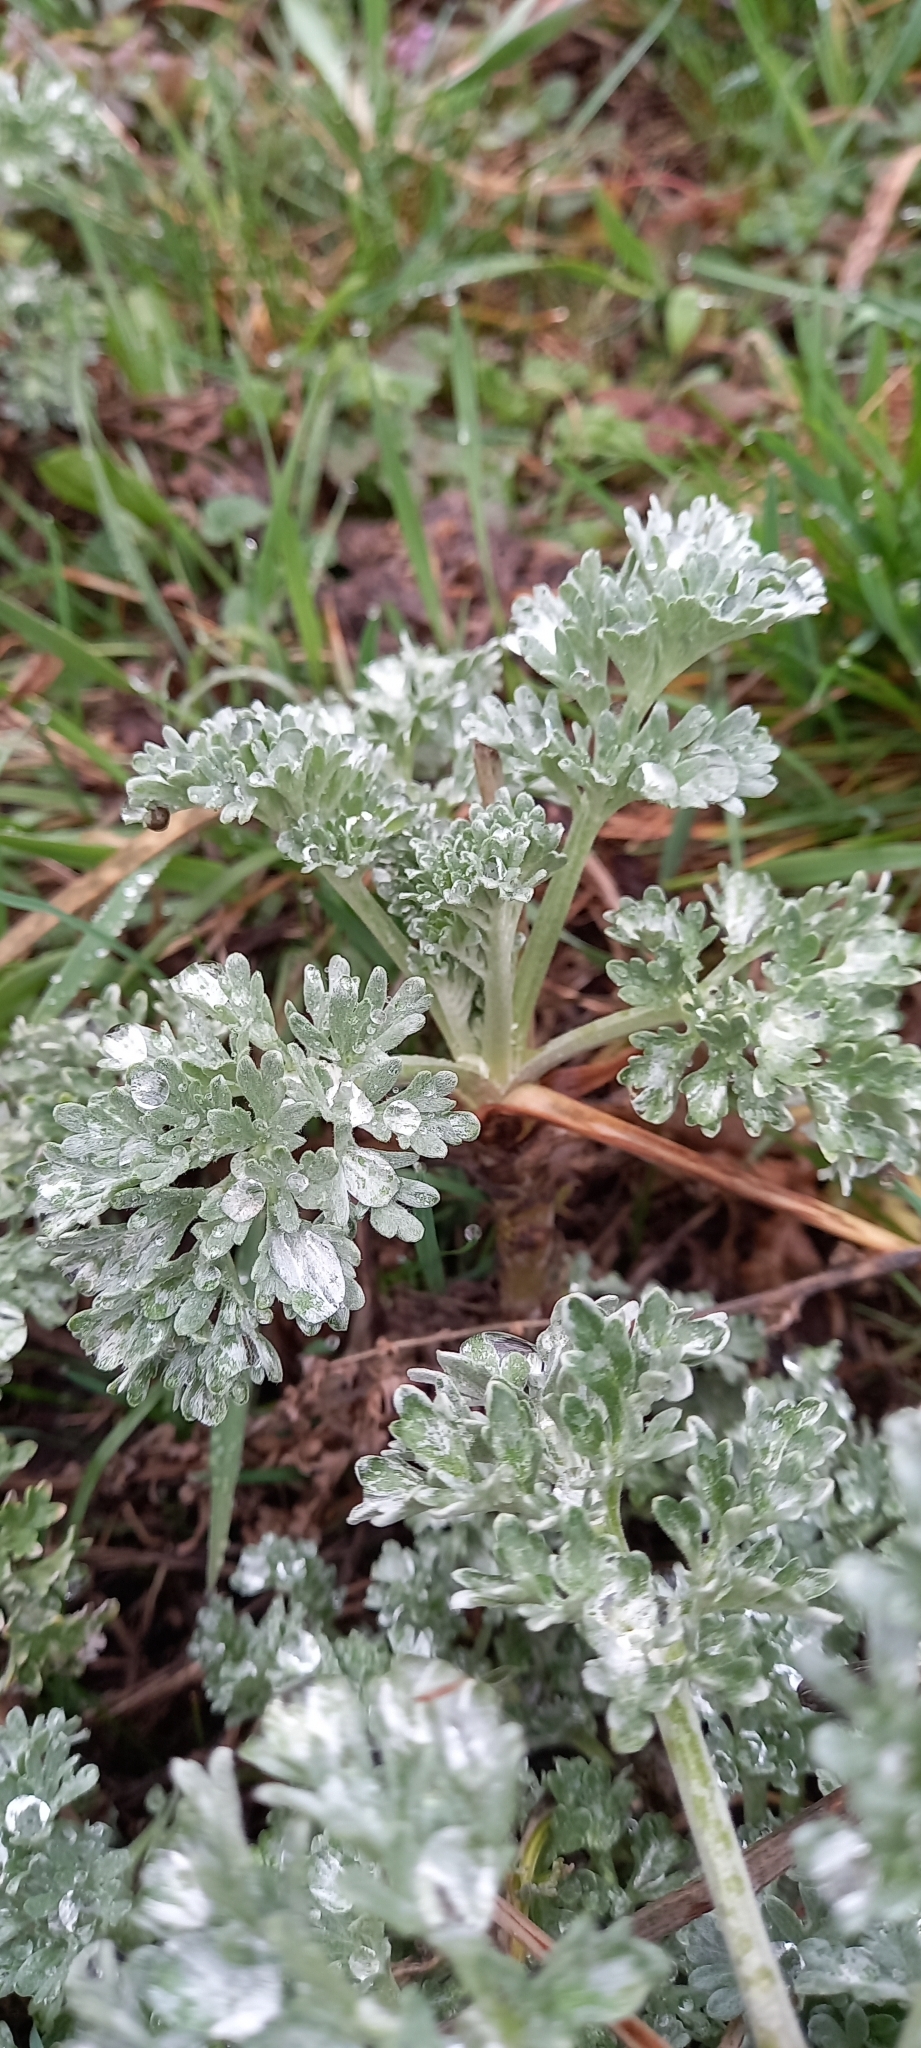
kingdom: Plantae
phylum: Tracheophyta
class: Magnoliopsida
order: Asterales
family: Asteraceae
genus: Artemisia
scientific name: Artemisia absinthium
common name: Wormwood
